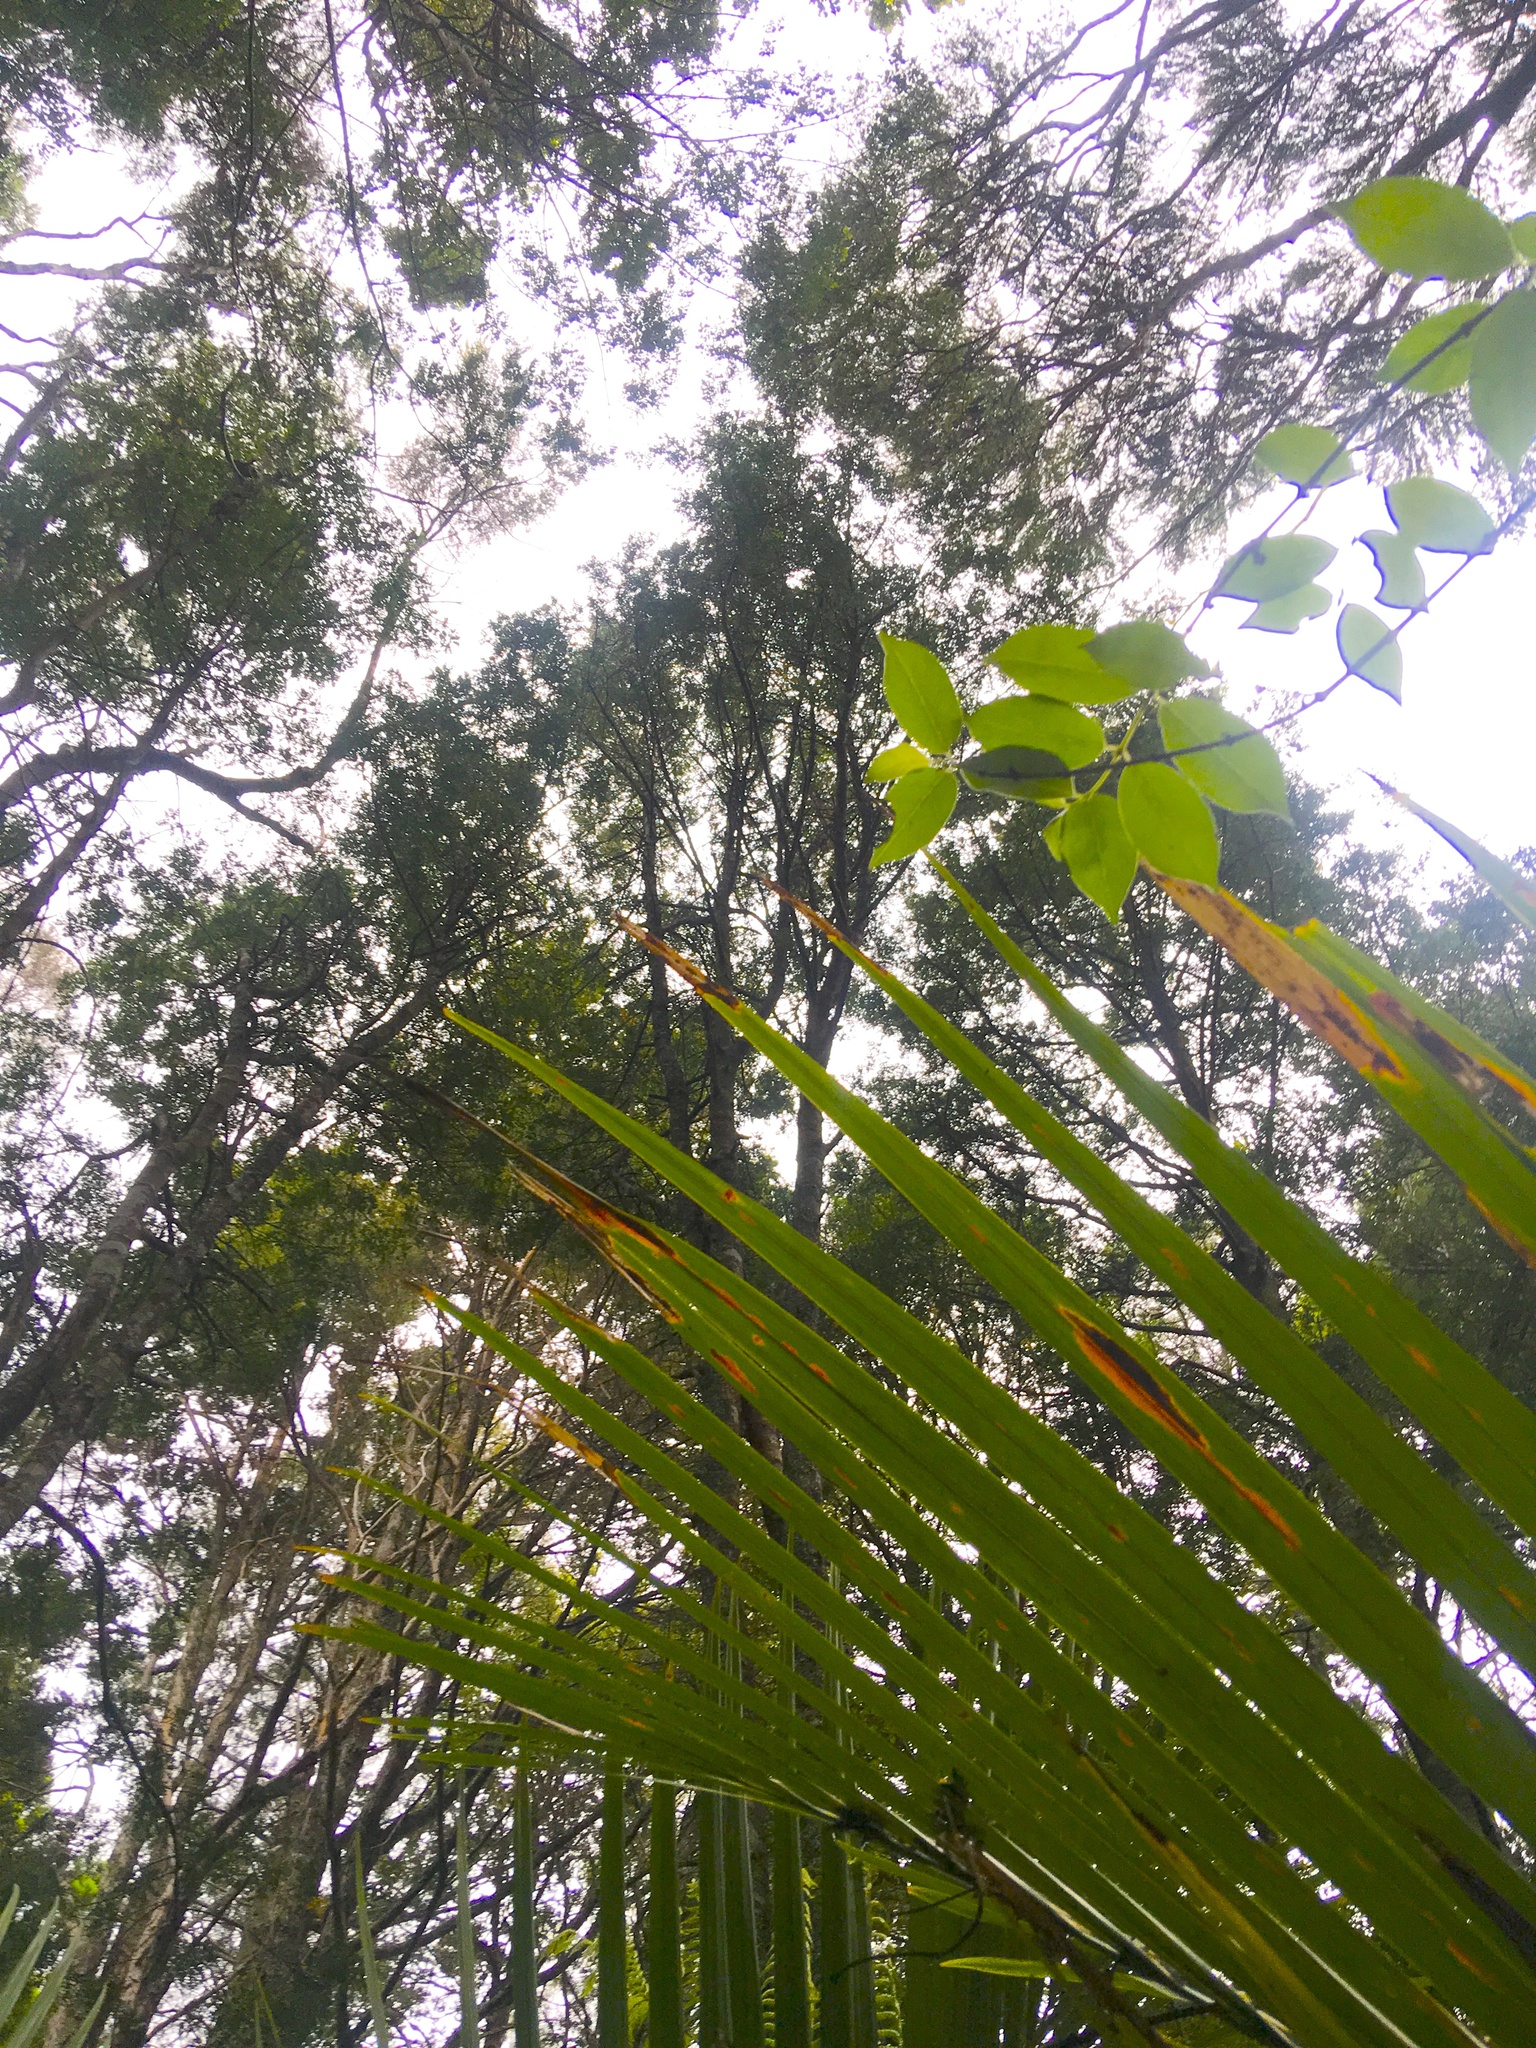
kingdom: Plantae
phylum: Tracheophyta
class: Pinopsida
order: Pinales
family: Podocarpaceae
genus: Dacrycarpus
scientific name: Dacrycarpus dacrydioides
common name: White pine
